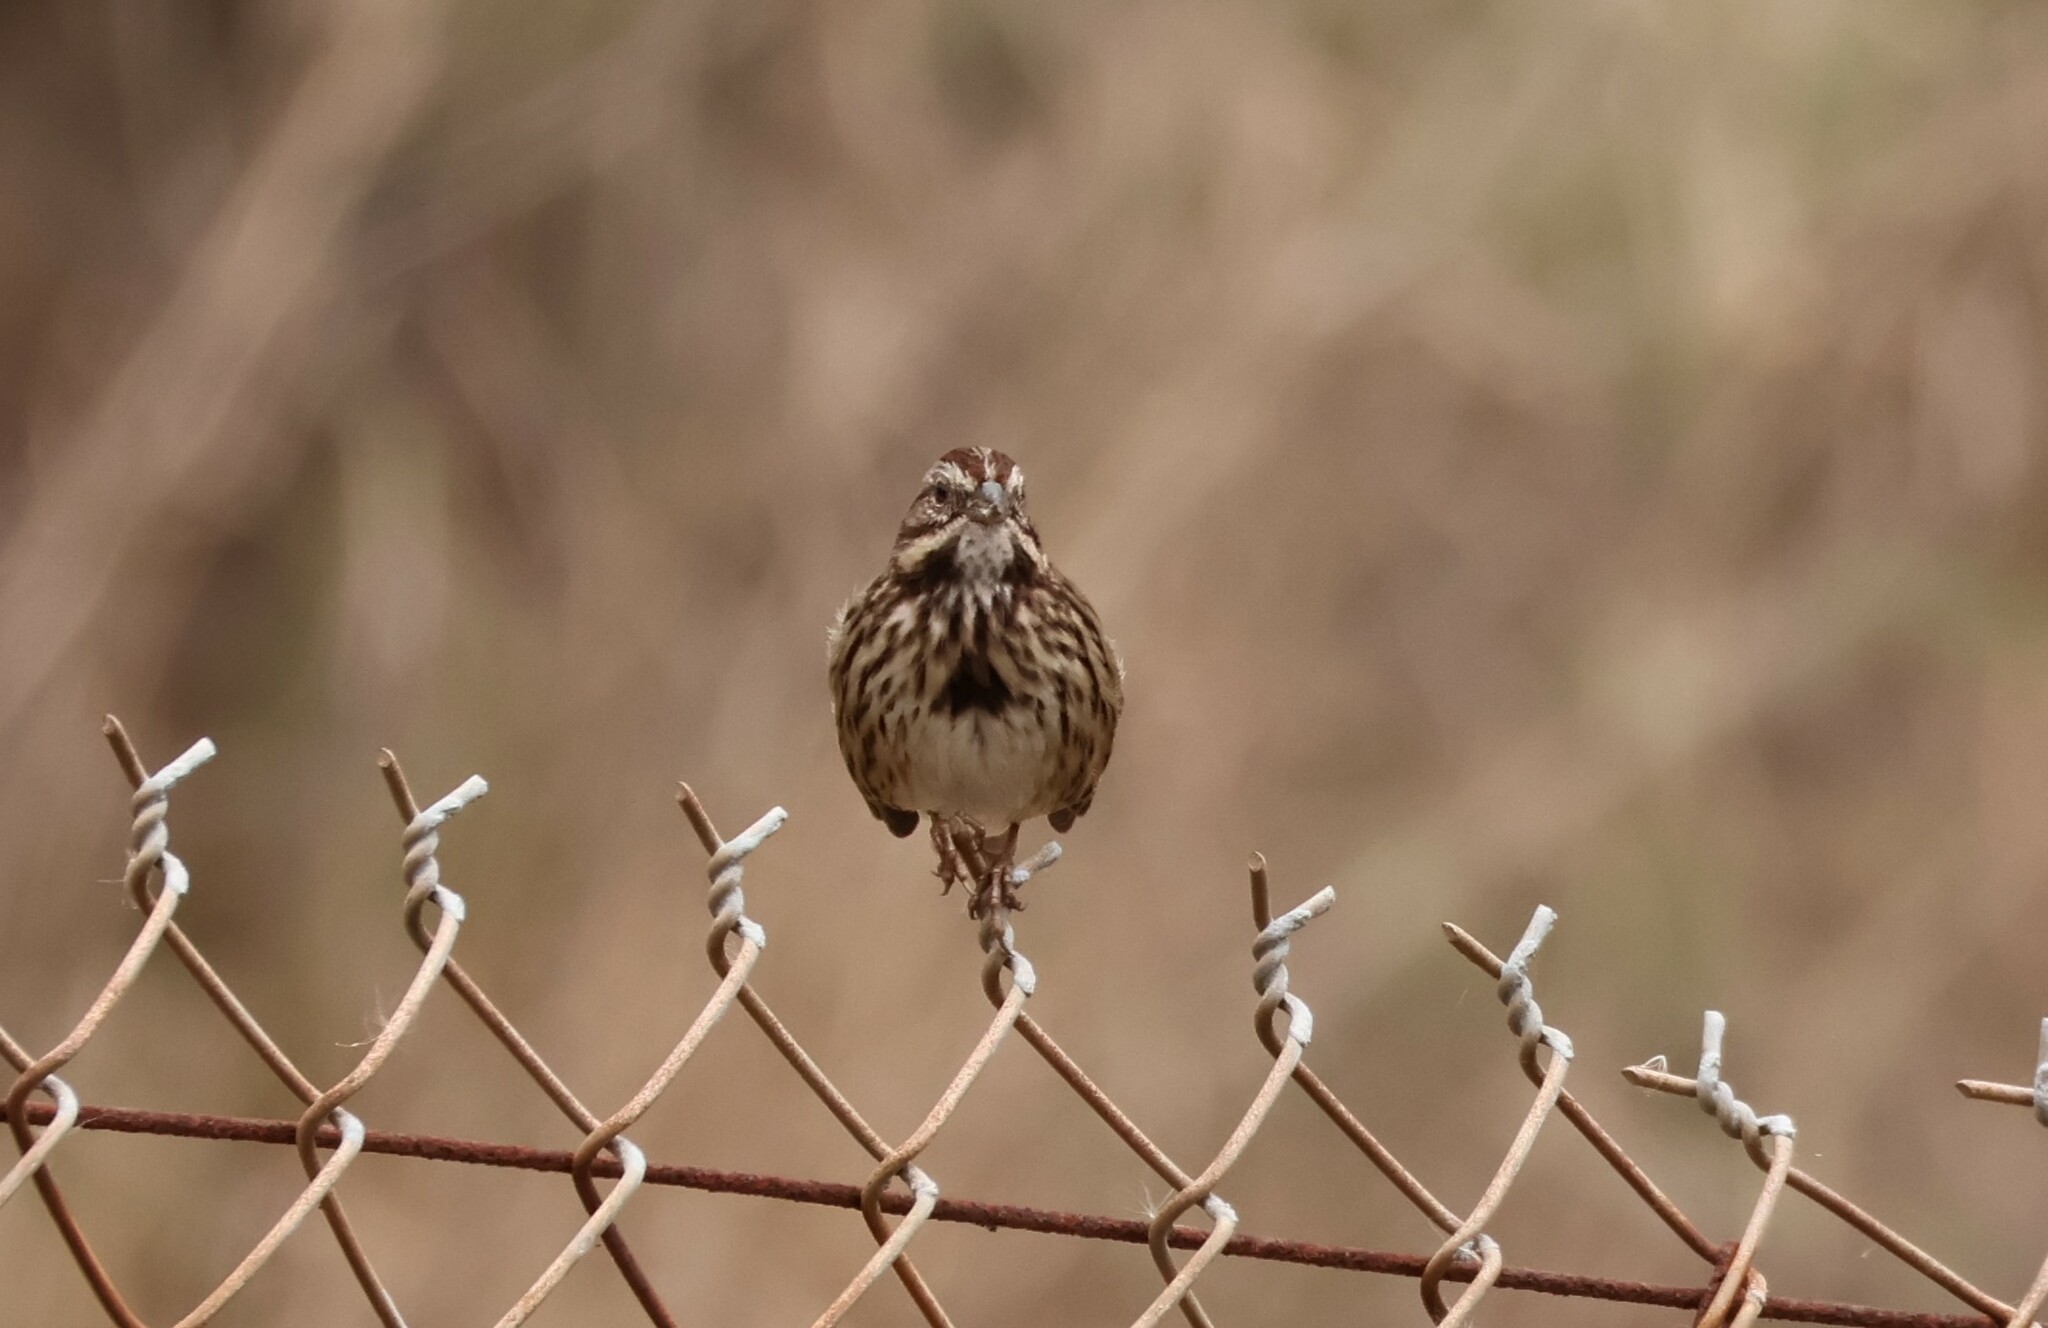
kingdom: Animalia
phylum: Chordata
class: Aves
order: Passeriformes
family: Passerellidae
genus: Melospiza
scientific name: Melospiza melodia
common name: Song sparrow
